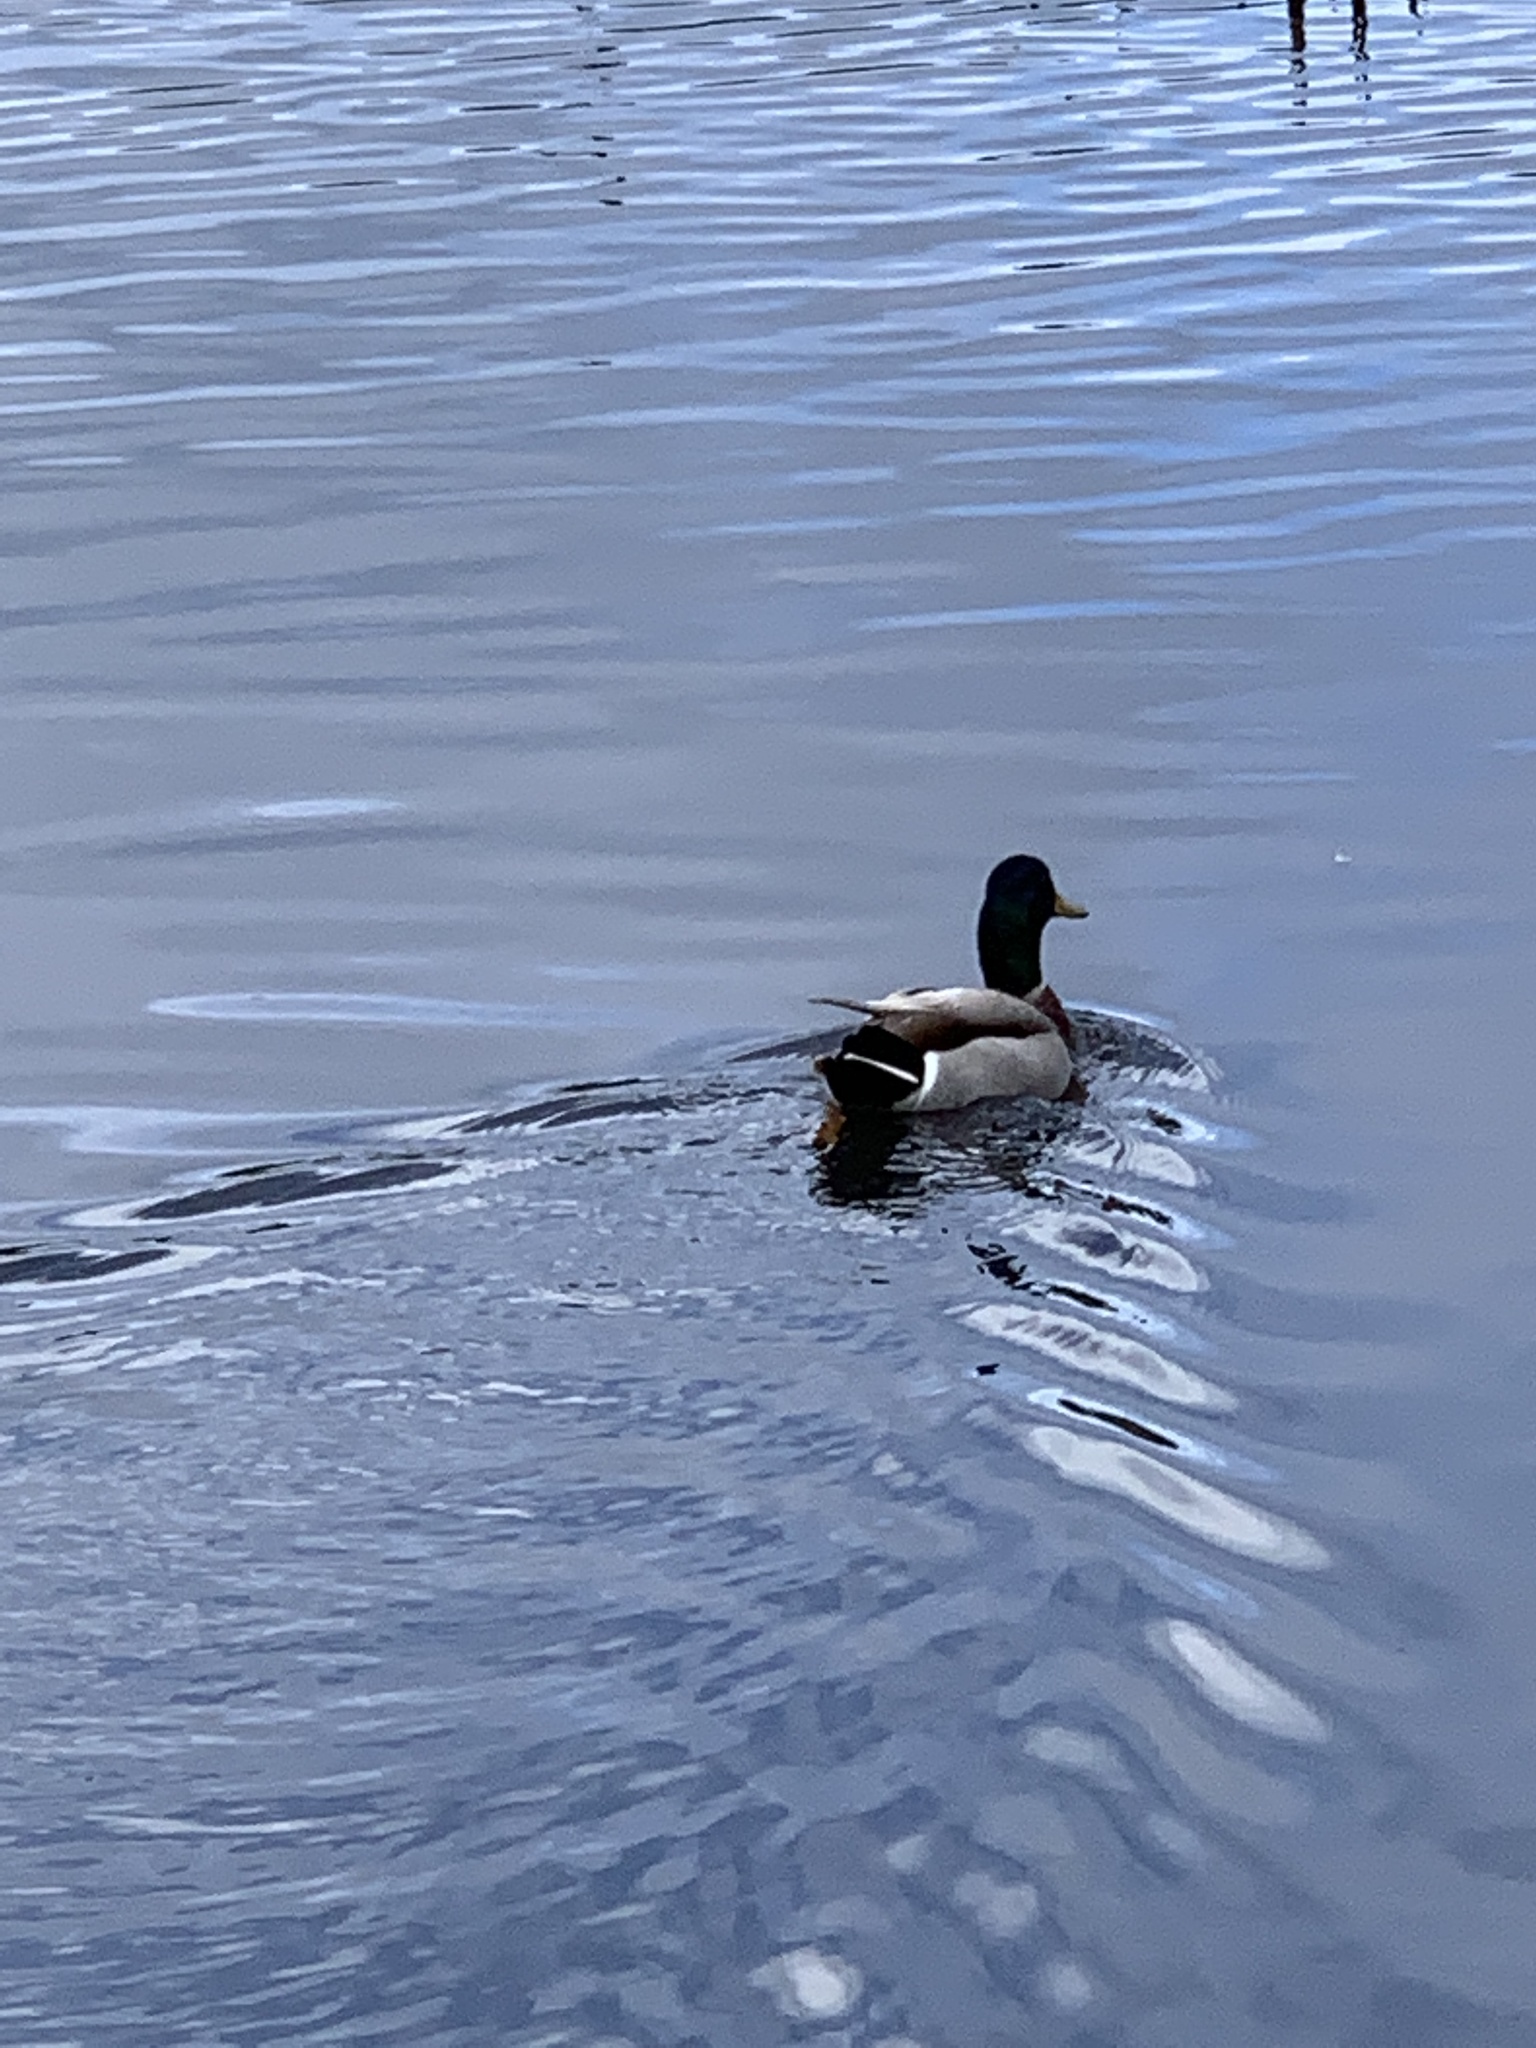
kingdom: Animalia
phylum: Chordata
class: Aves
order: Anseriformes
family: Anatidae
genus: Anas
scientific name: Anas platyrhynchos
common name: Mallard
